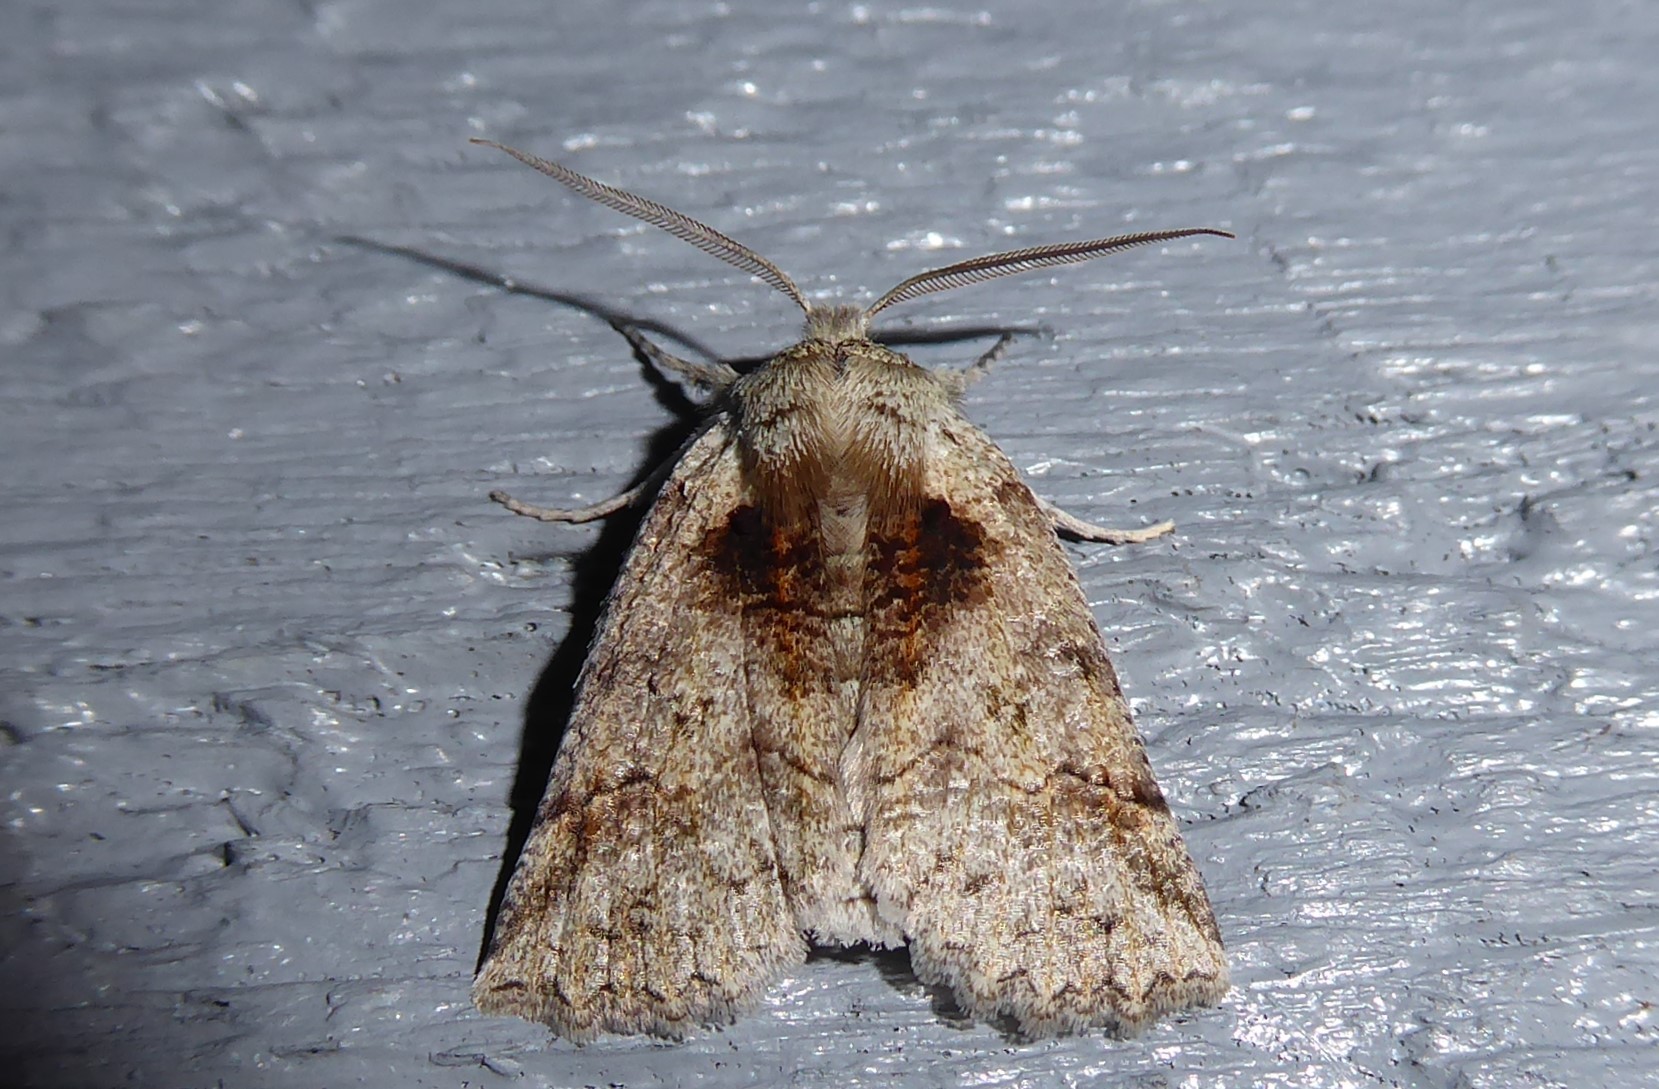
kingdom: Animalia
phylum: Arthropoda
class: Insecta
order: Lepidoptera
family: Geometridae
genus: Declana
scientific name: Declana floccosa
